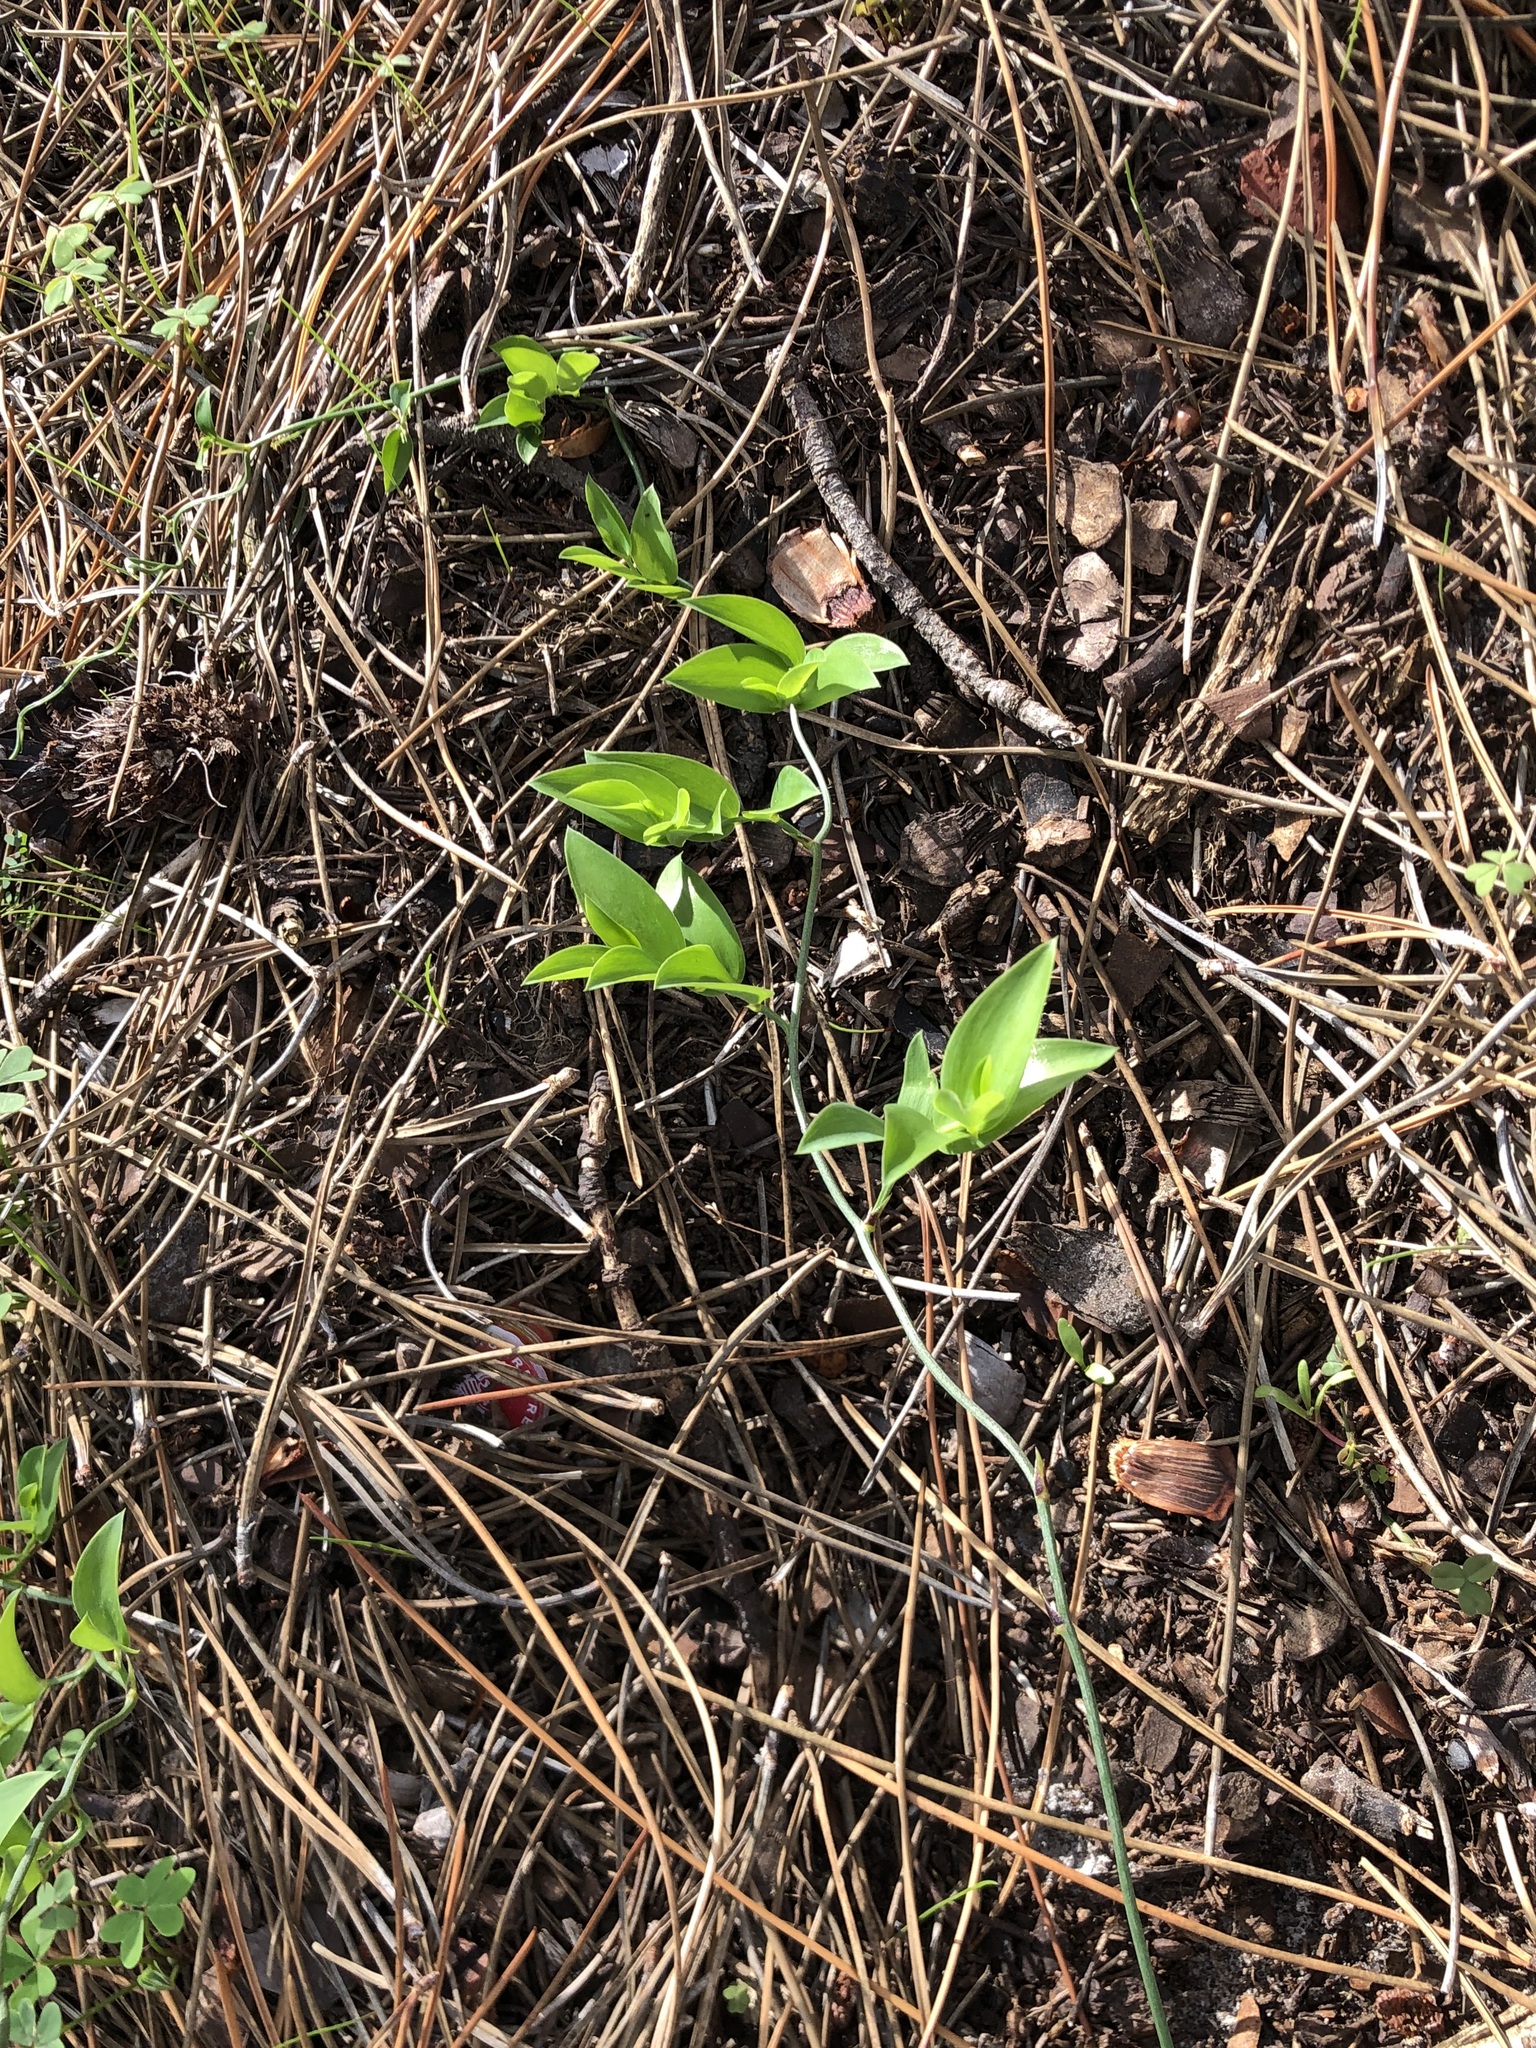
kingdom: Plantae
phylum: Tracheophyta
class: Liliopsida
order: Asparagales
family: Asparagaceae
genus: Asparagus
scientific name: Asparagus asparagoides
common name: African asparagus fern
